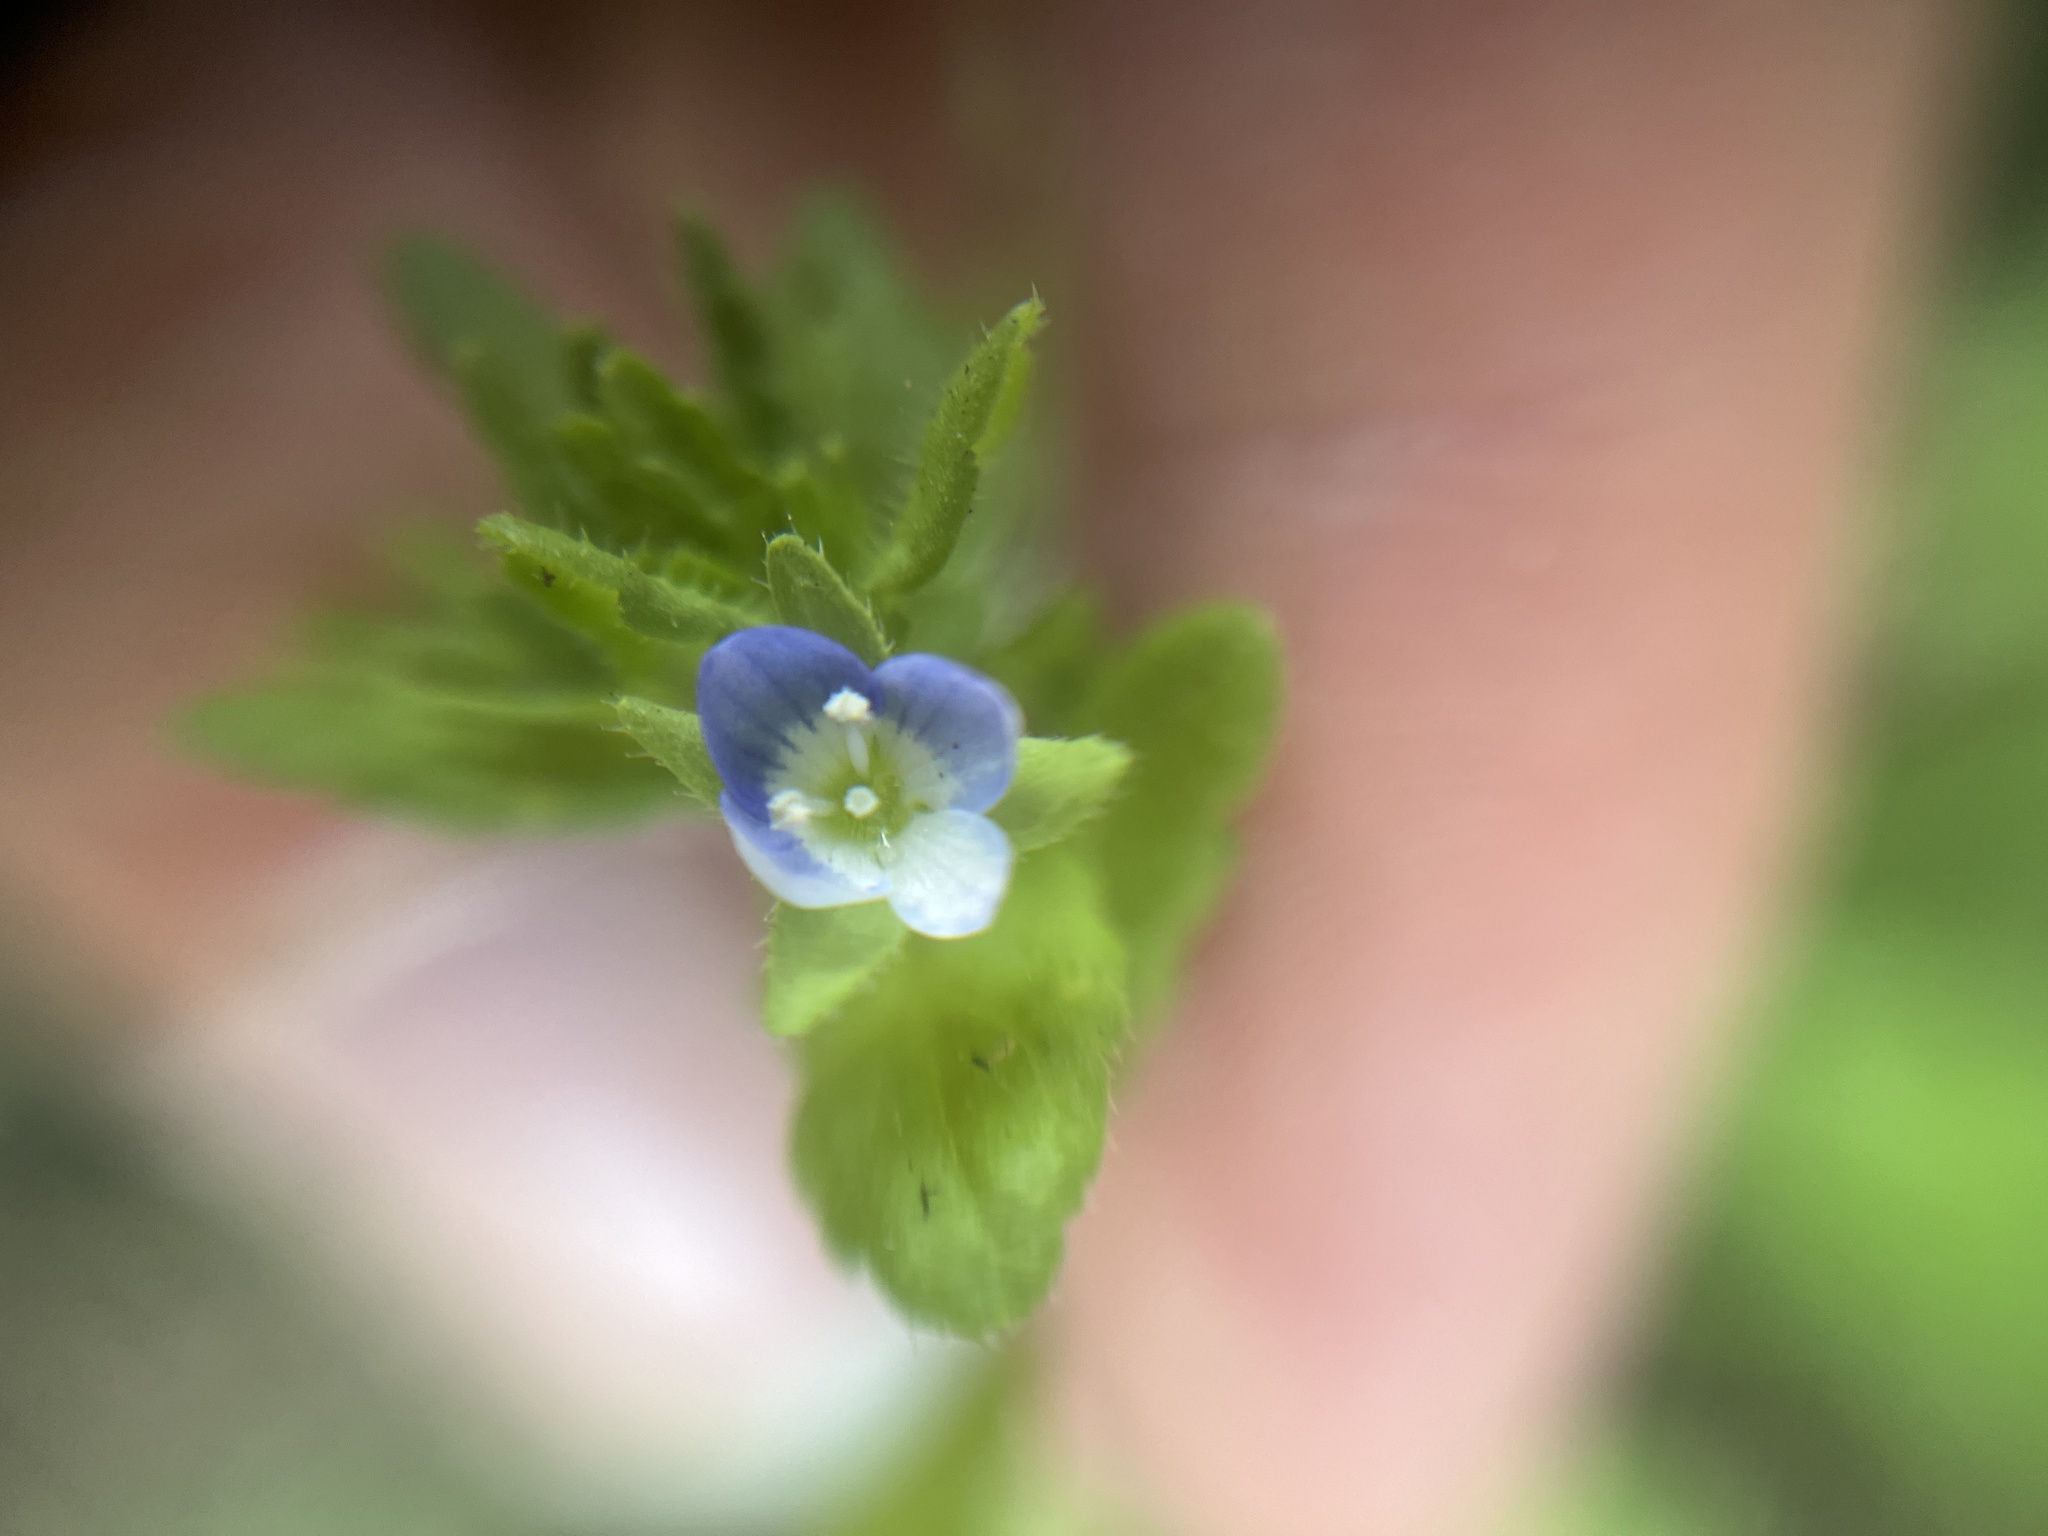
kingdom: Plantae
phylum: Tracheophyta
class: Magnoliopsida
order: Lamiales
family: Plantaginaceae
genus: Veronica
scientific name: Veronica persica
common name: Common field-speedwell
